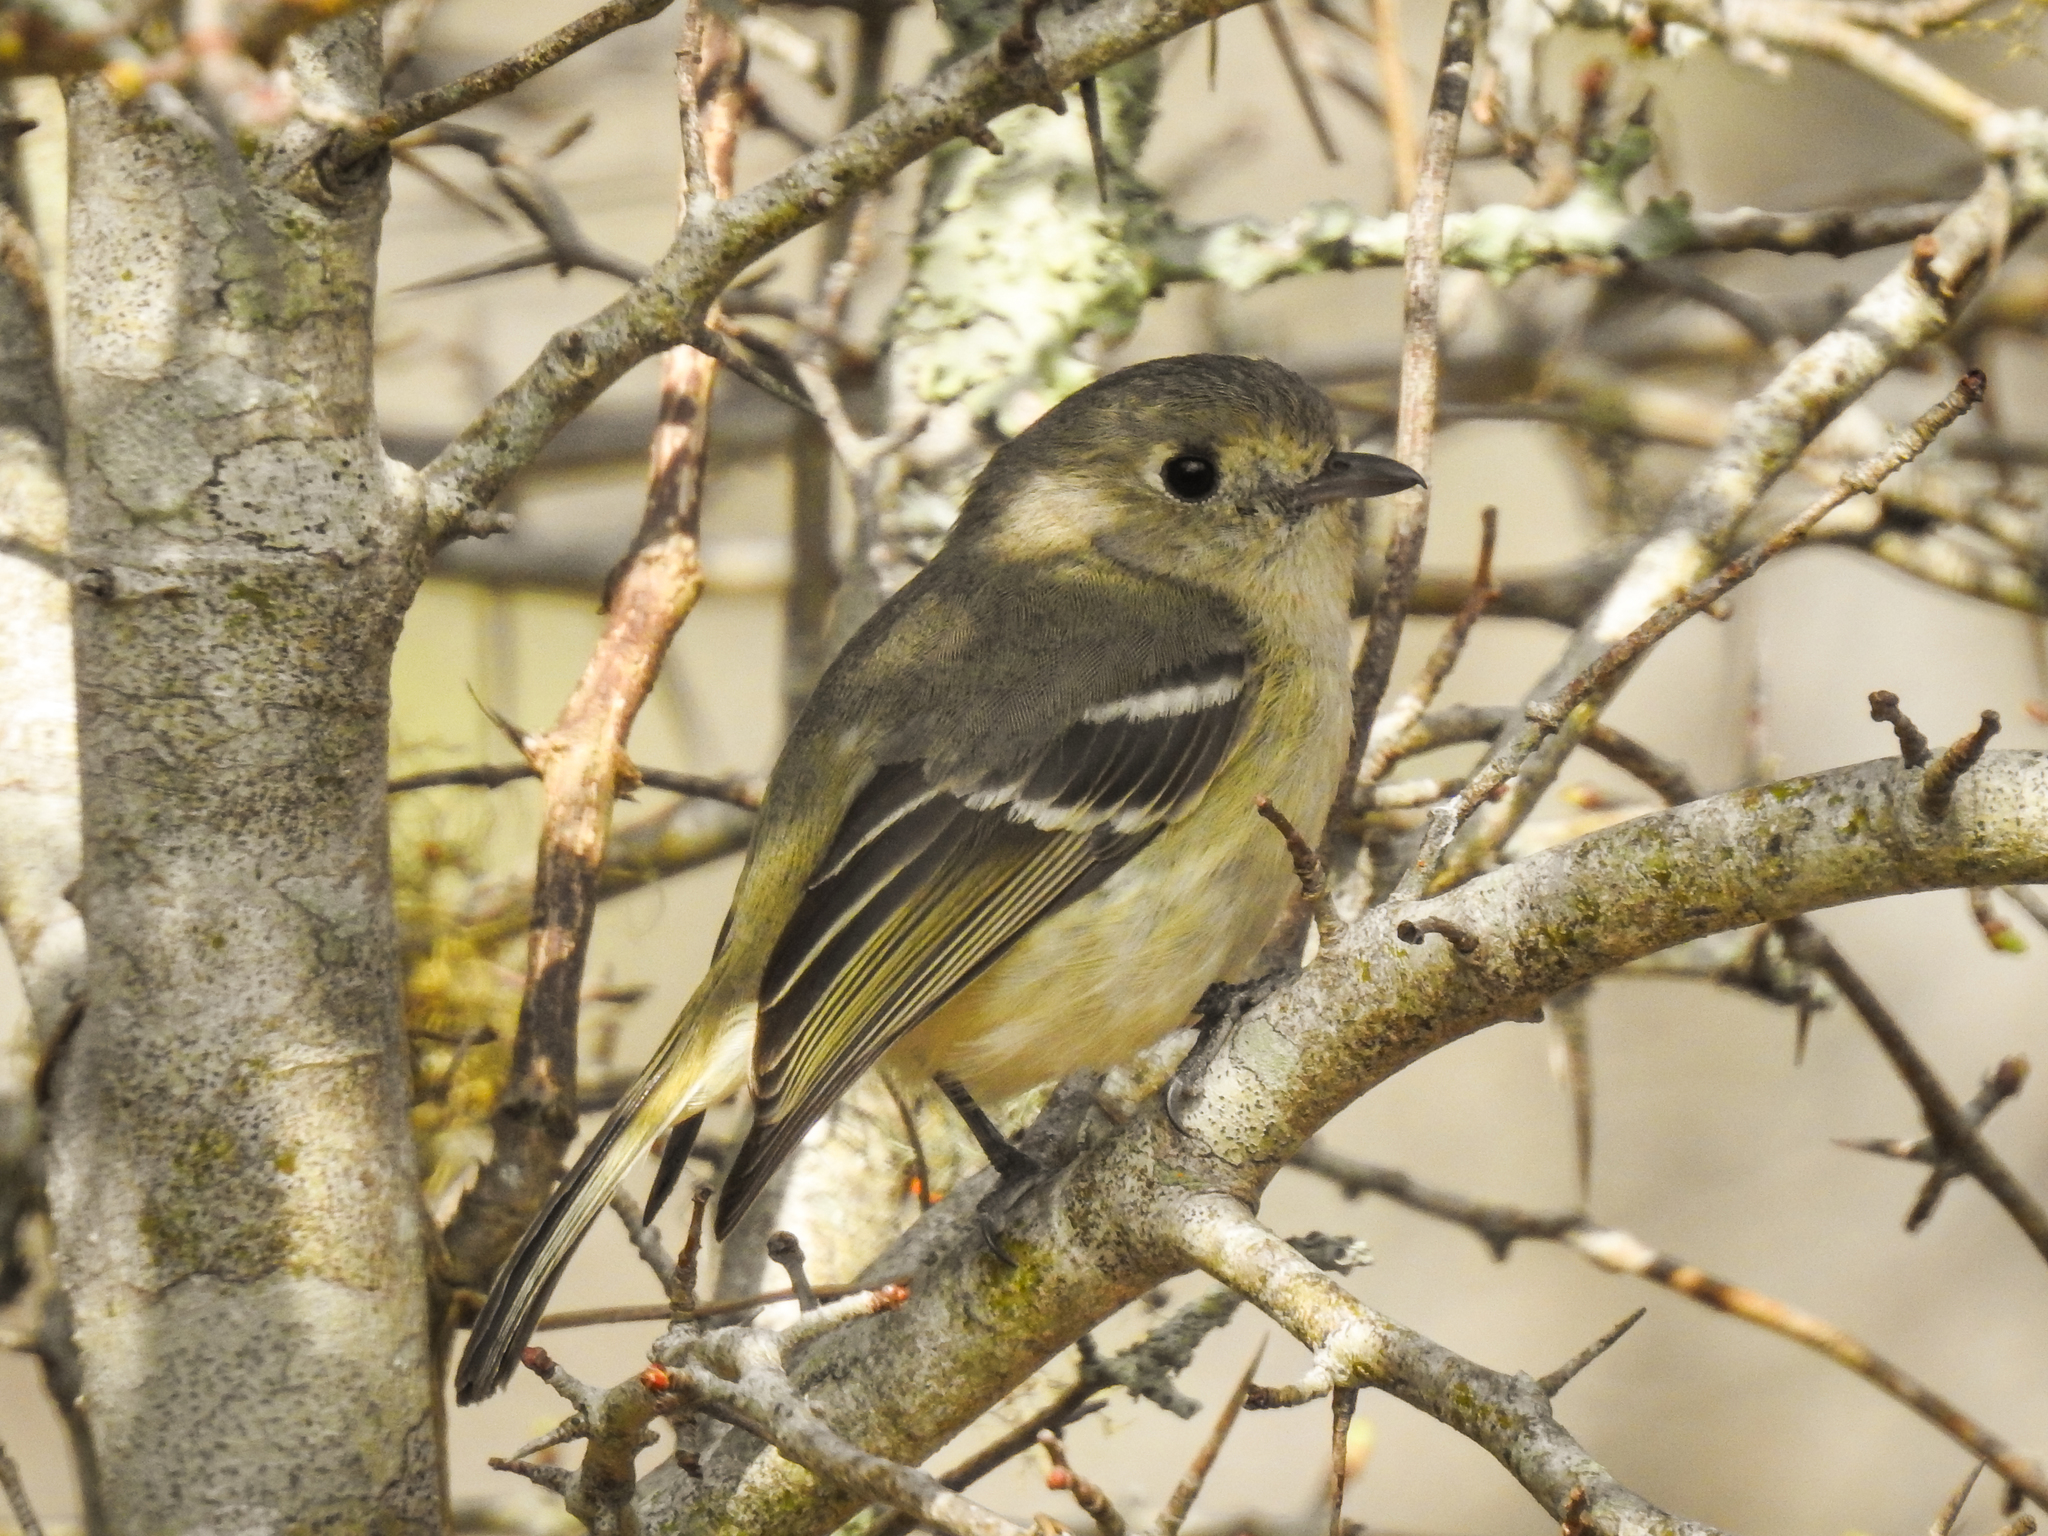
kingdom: Animalia
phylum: Chordata
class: Aves
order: Passeriformes
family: Vireonidae
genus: Vireo
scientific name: Vireo huttoni
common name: Hutton's vireo
